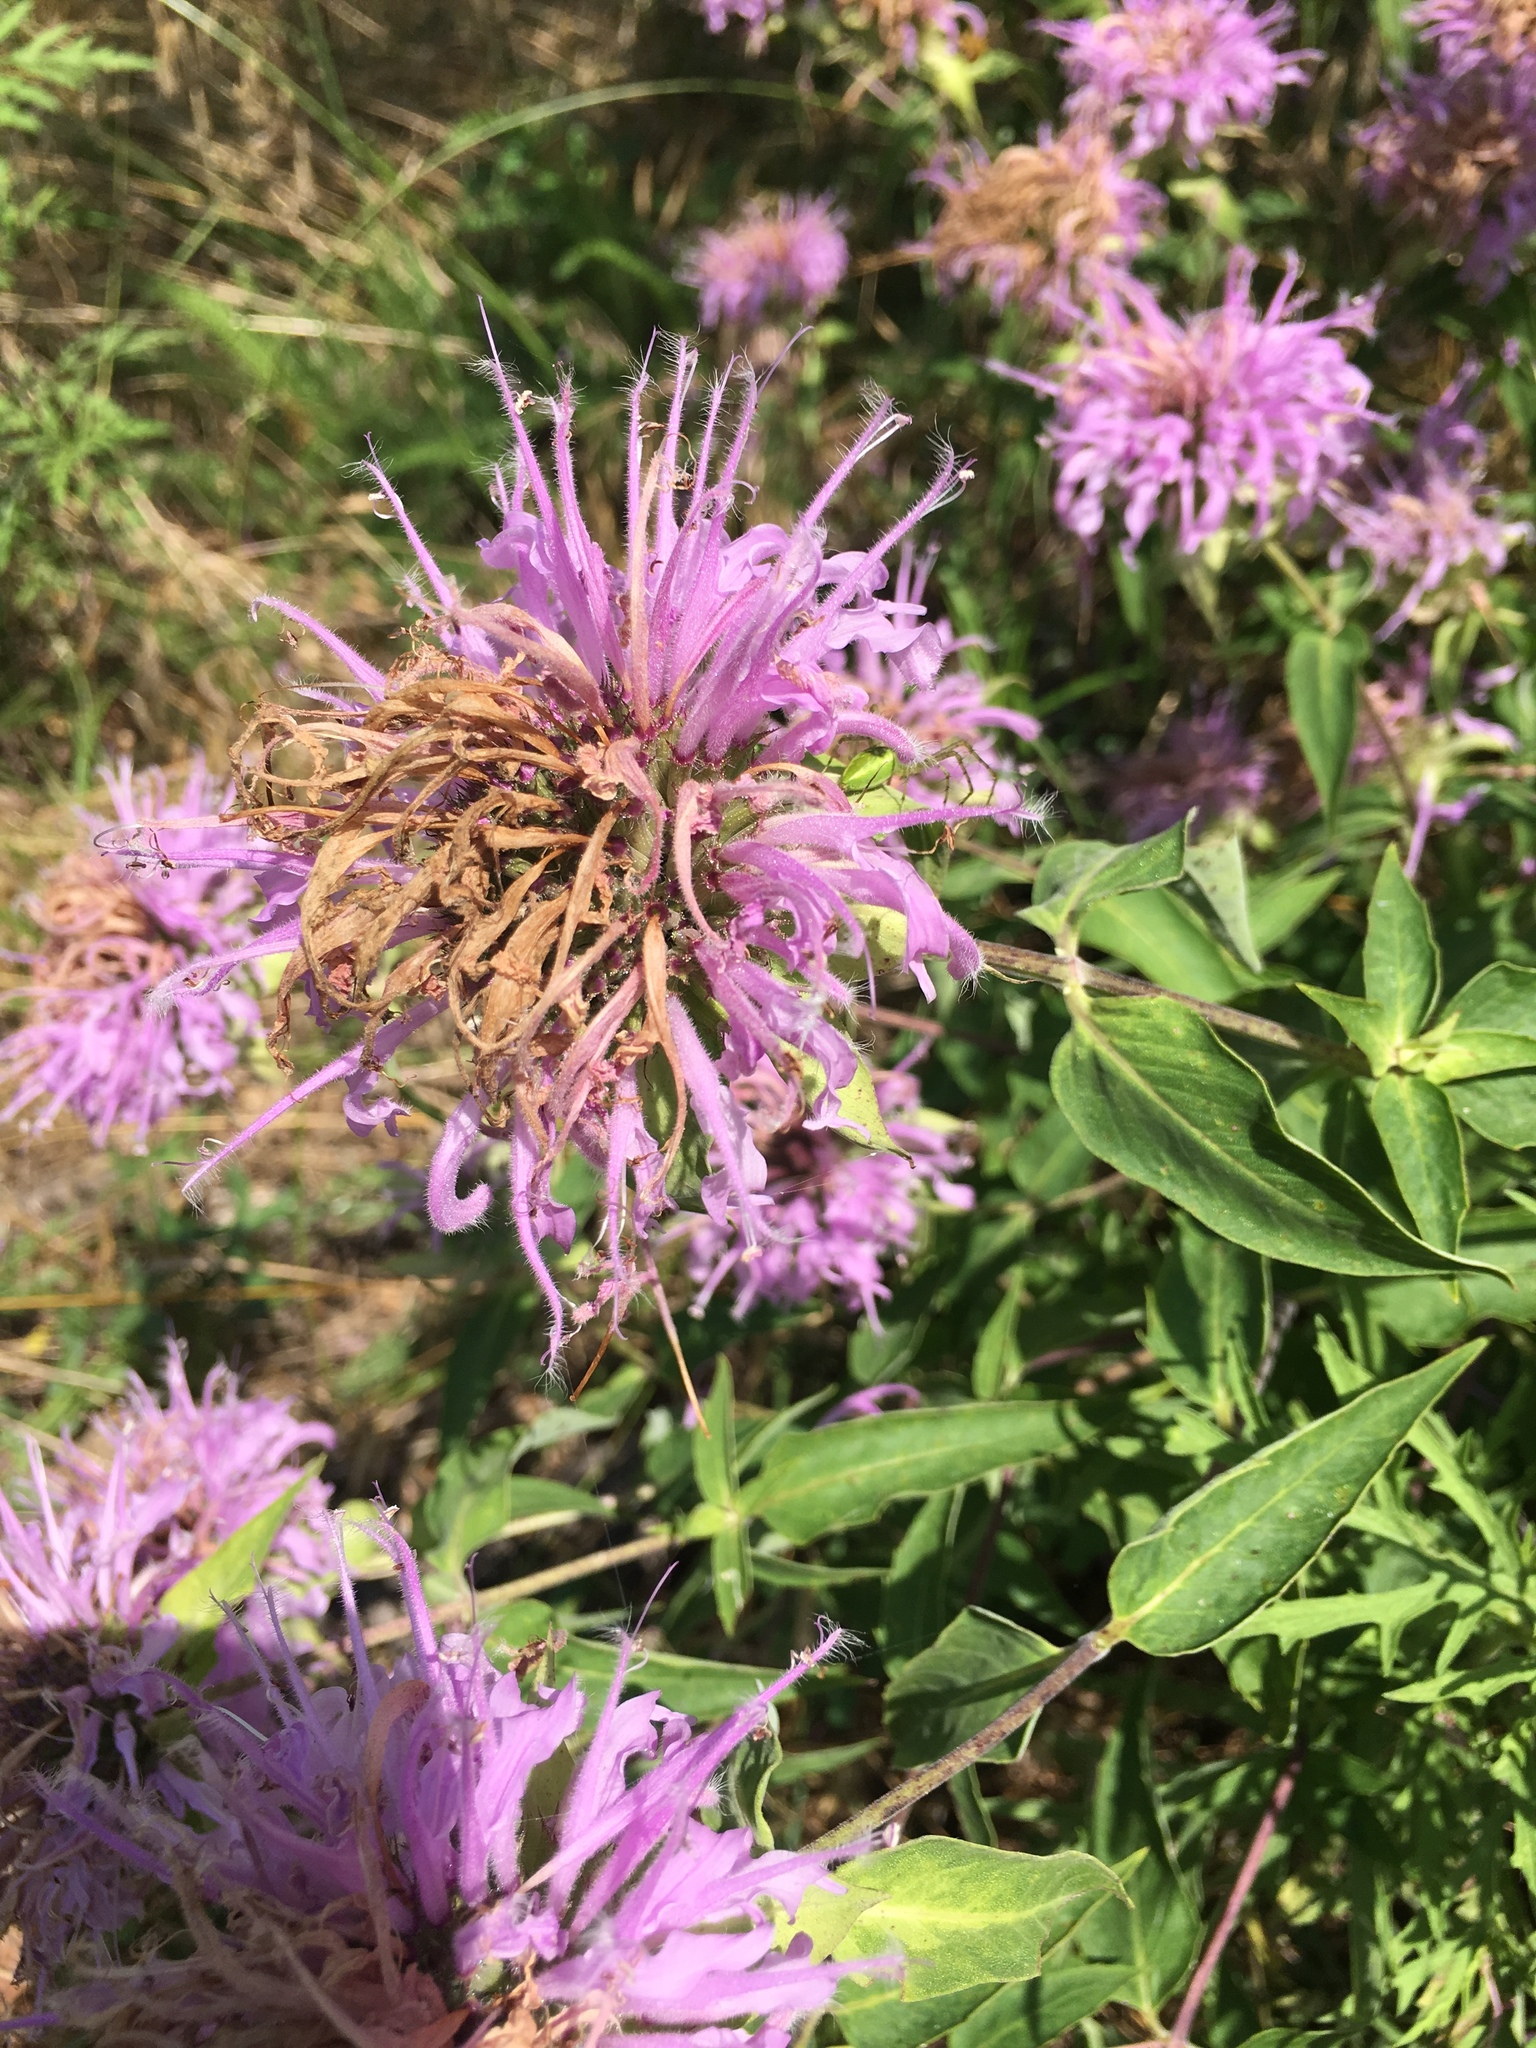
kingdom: Plantae
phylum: Tracheophyta
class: Magnoliopsida
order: Lamiales
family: Lamiaceae
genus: Monarda
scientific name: Monarda fistulosa
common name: Purple beebalm
